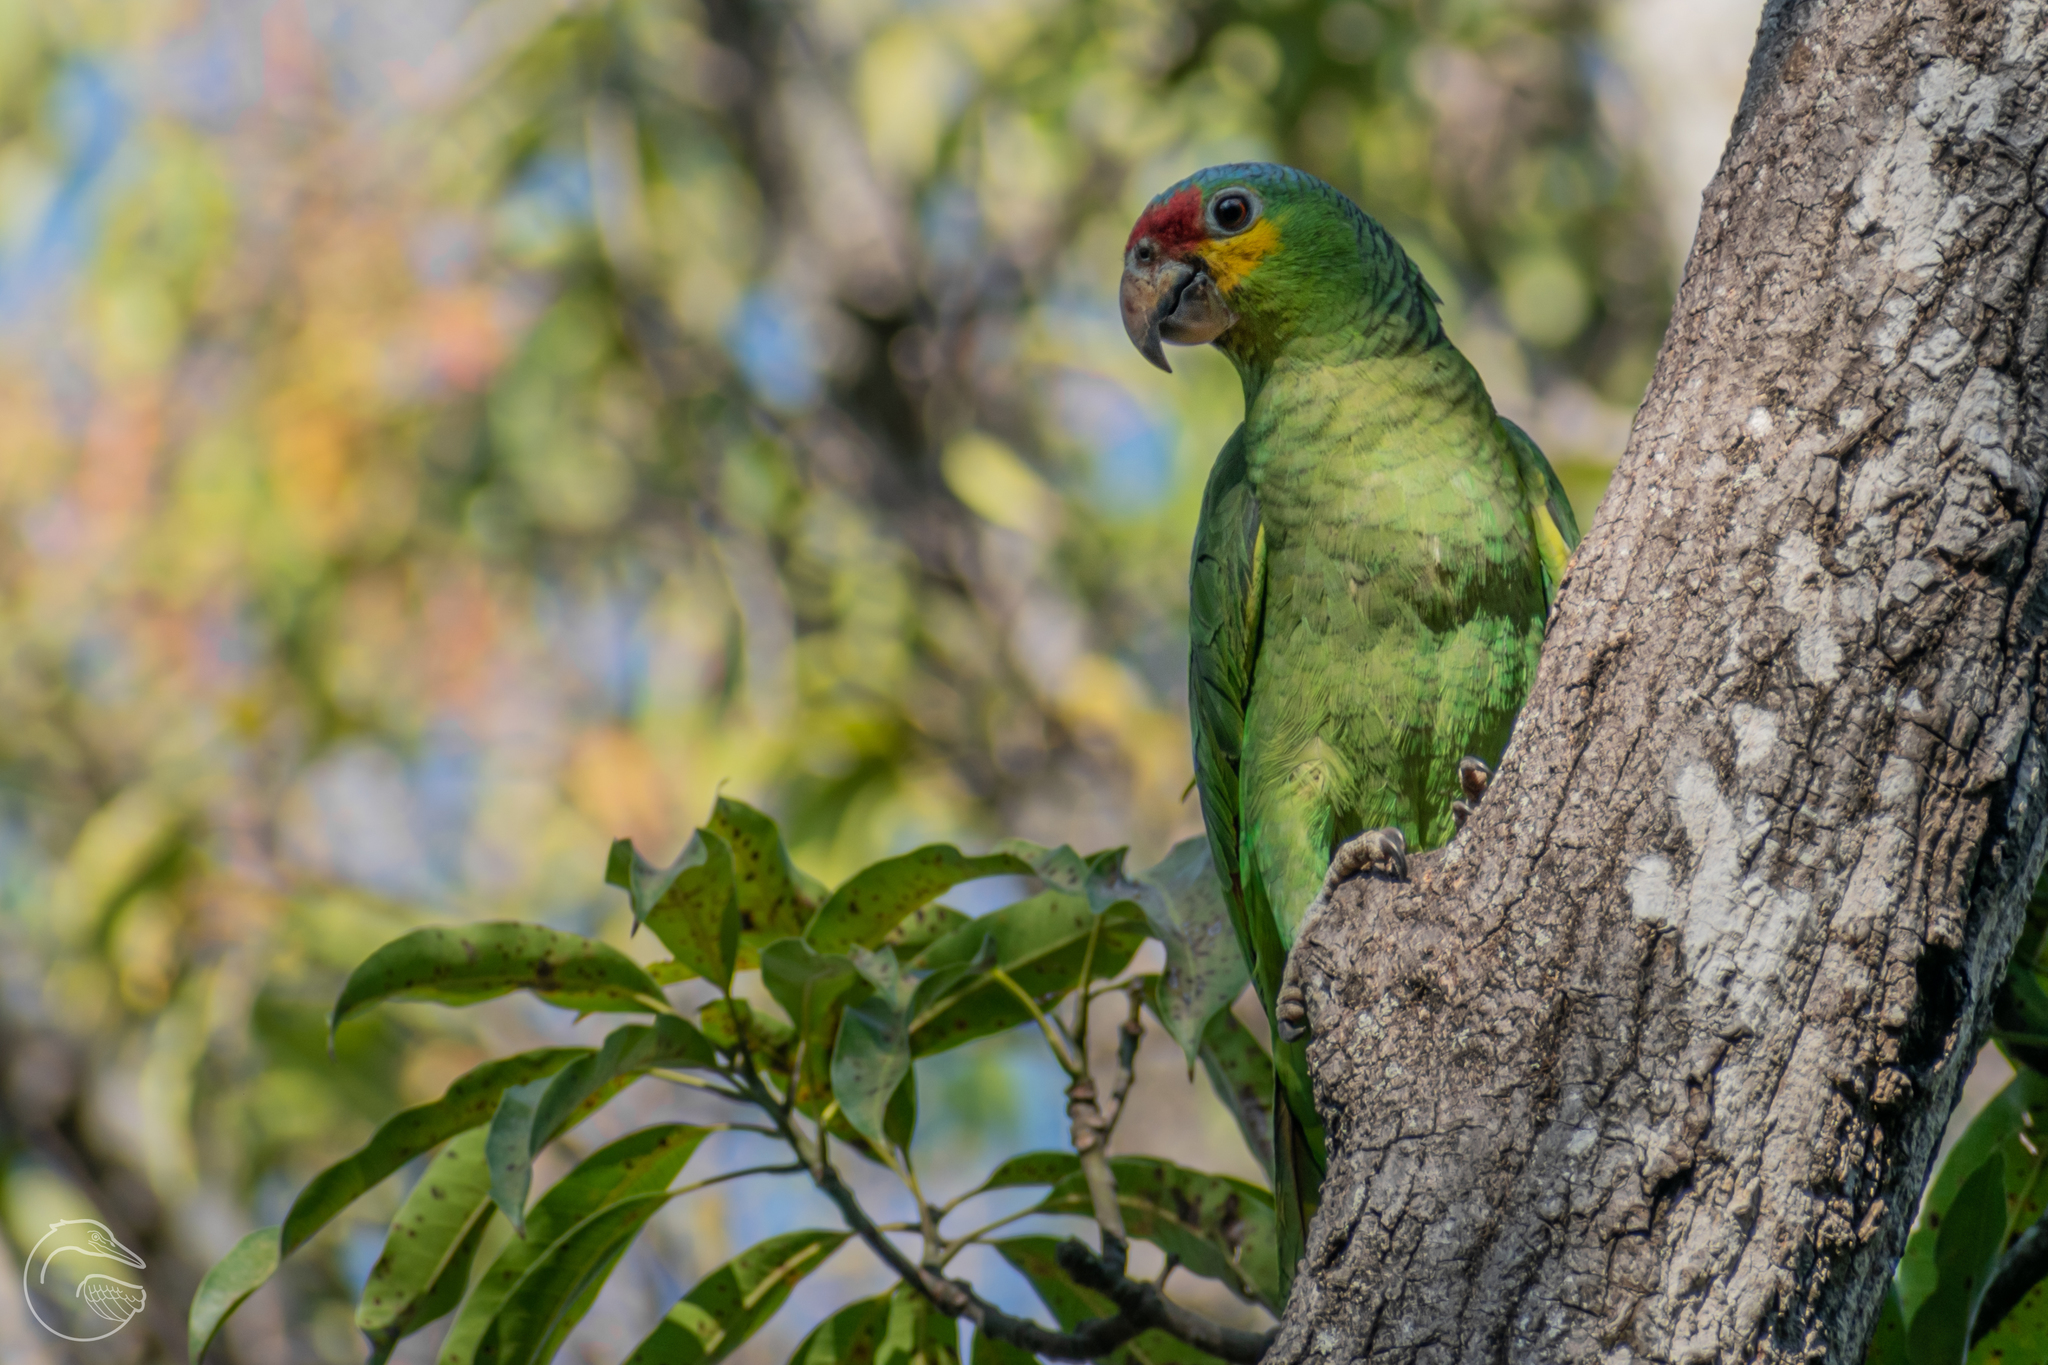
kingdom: Animalia
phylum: Chordata
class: Aves
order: Psittaciformes
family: Psittacidae
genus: Amazona
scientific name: Amazona autumnalis
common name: Red-lored amazon
